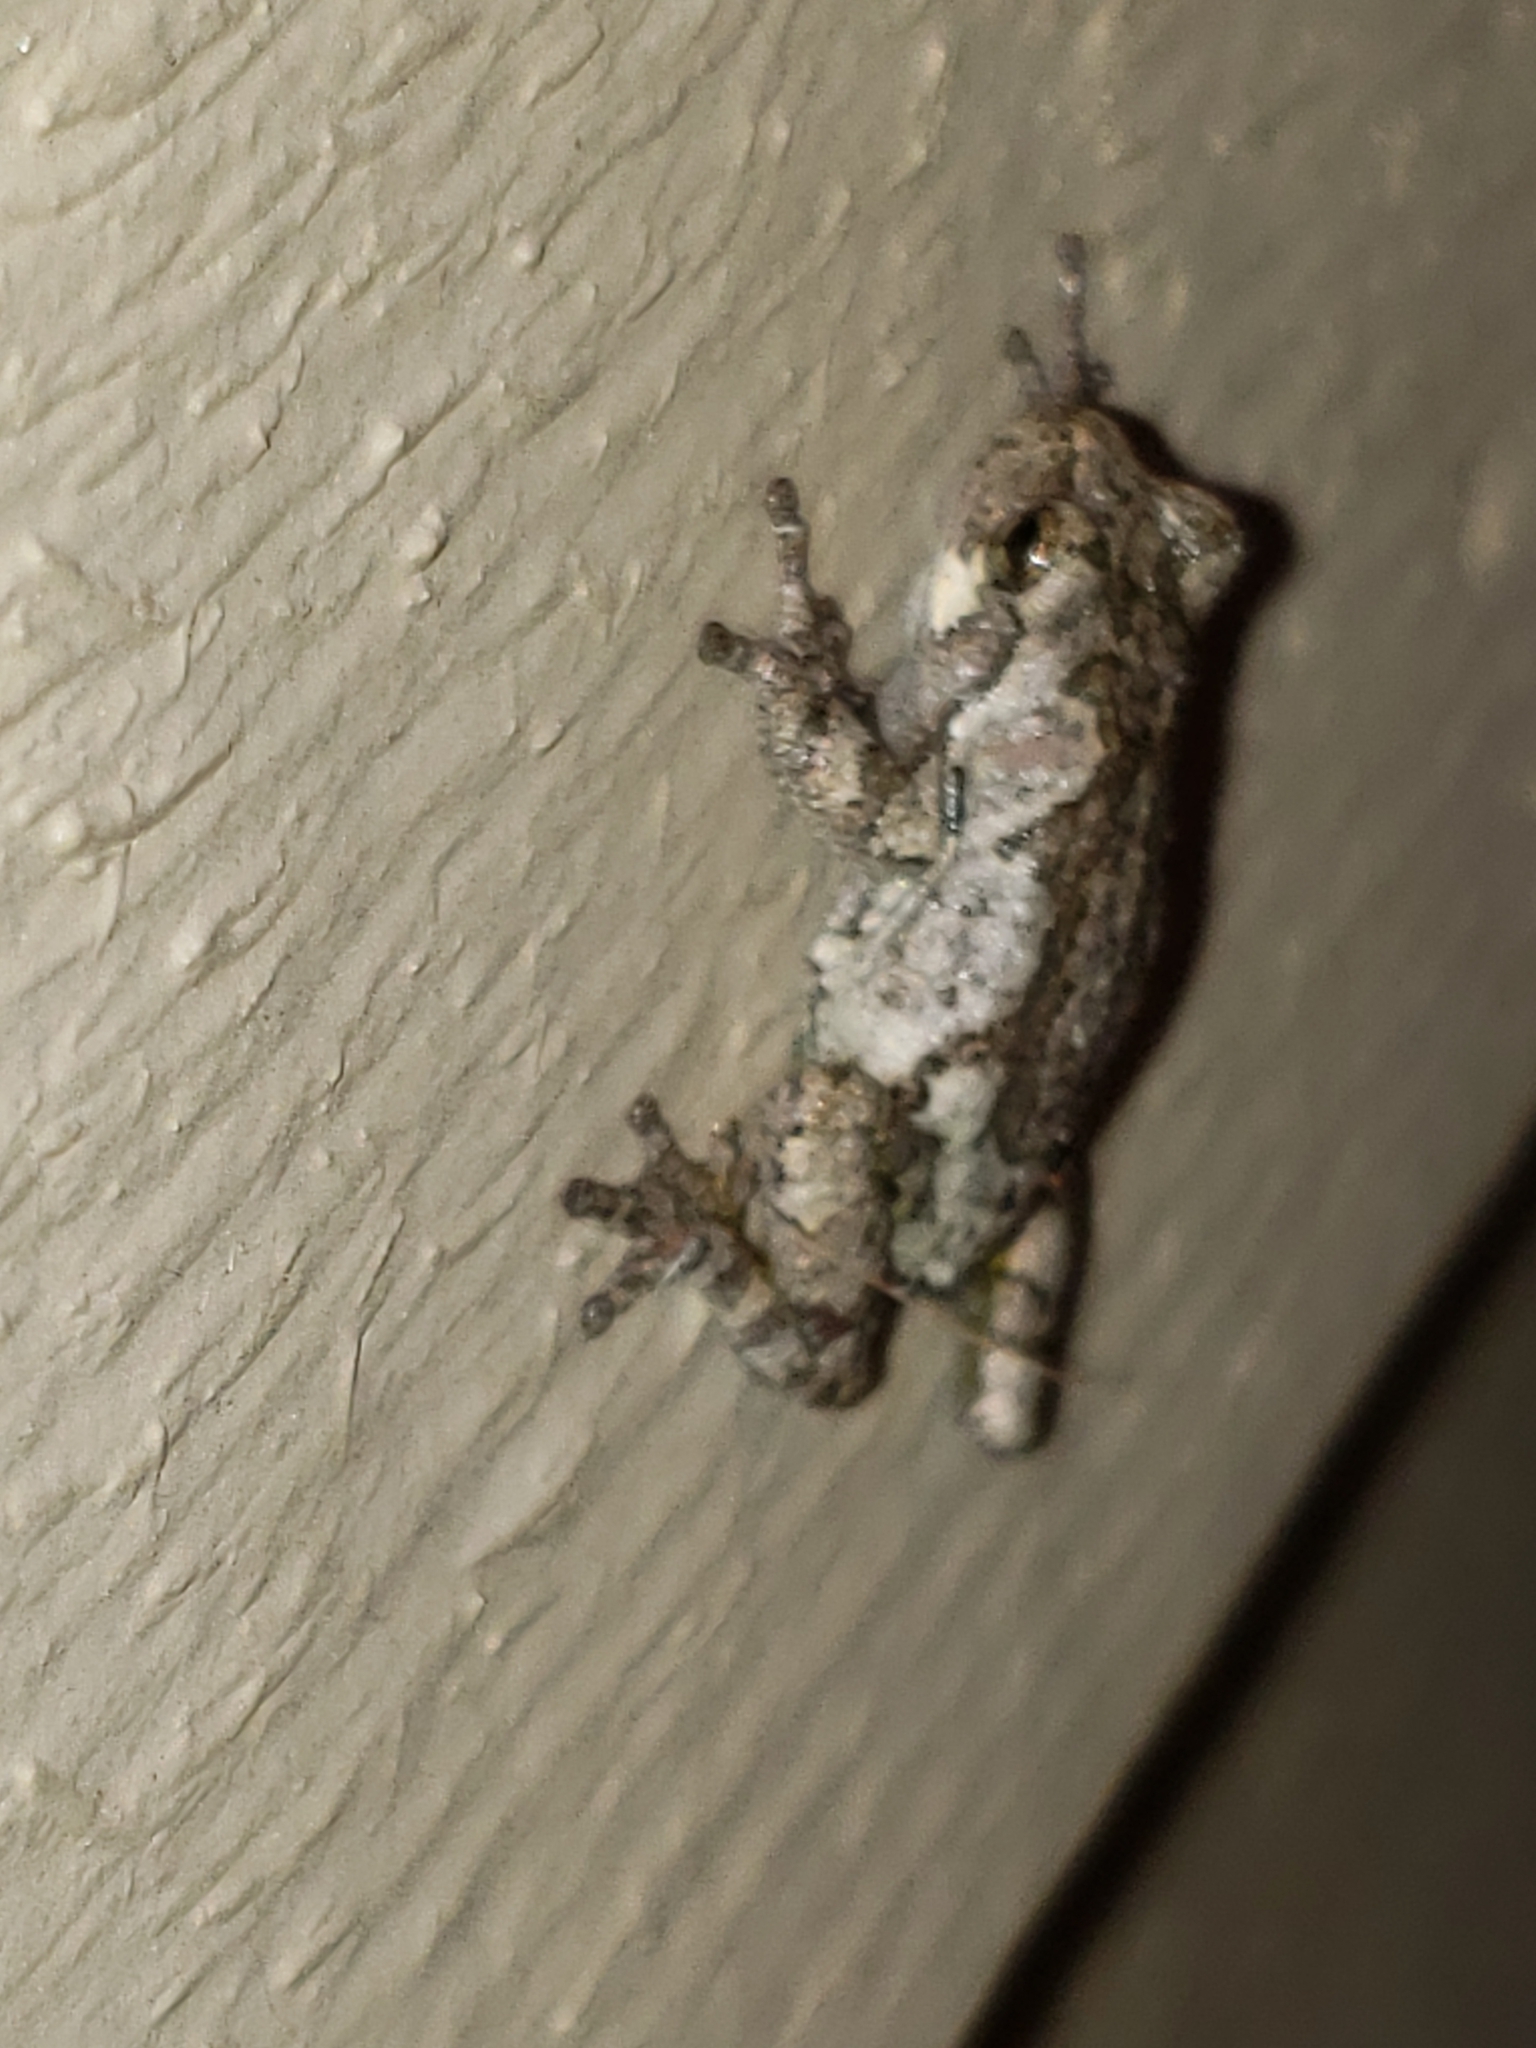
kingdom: Animalia
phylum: Chordata
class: Amphibia
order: Anura
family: Hylidae
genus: Hyla
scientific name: Hyla
